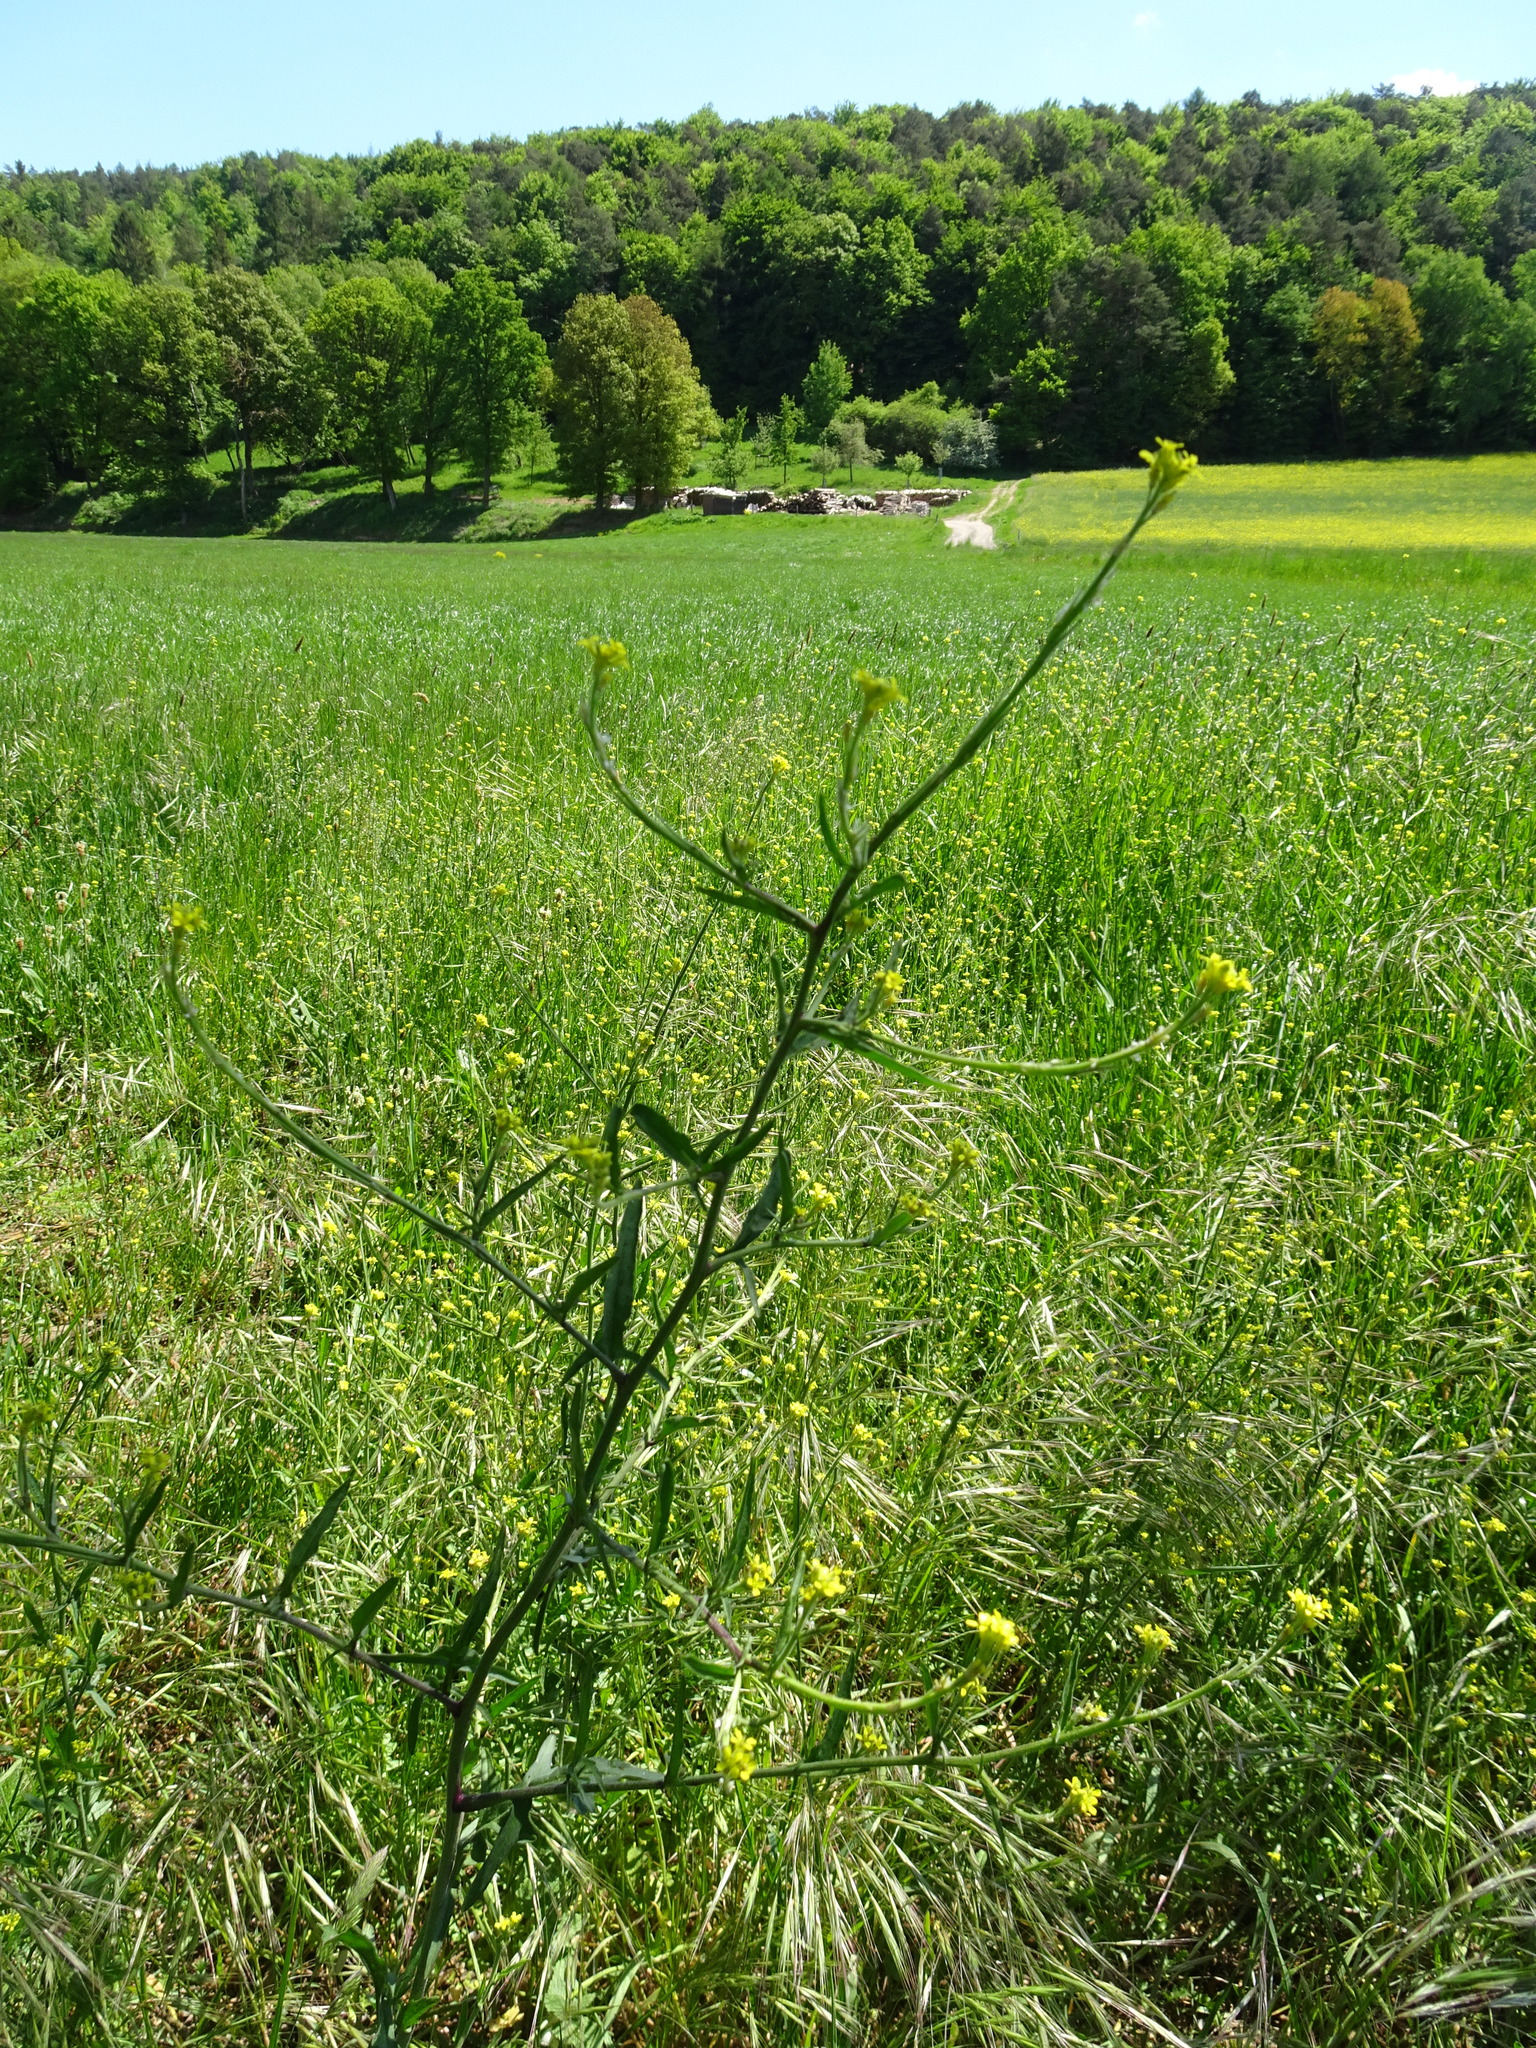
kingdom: Plantae
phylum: Tracheophyta
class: Magnoliopsida
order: Brassicales
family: Brassicaceae
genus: Sisymbrium
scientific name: Sisymbrium officinale
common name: Hedge mustard
